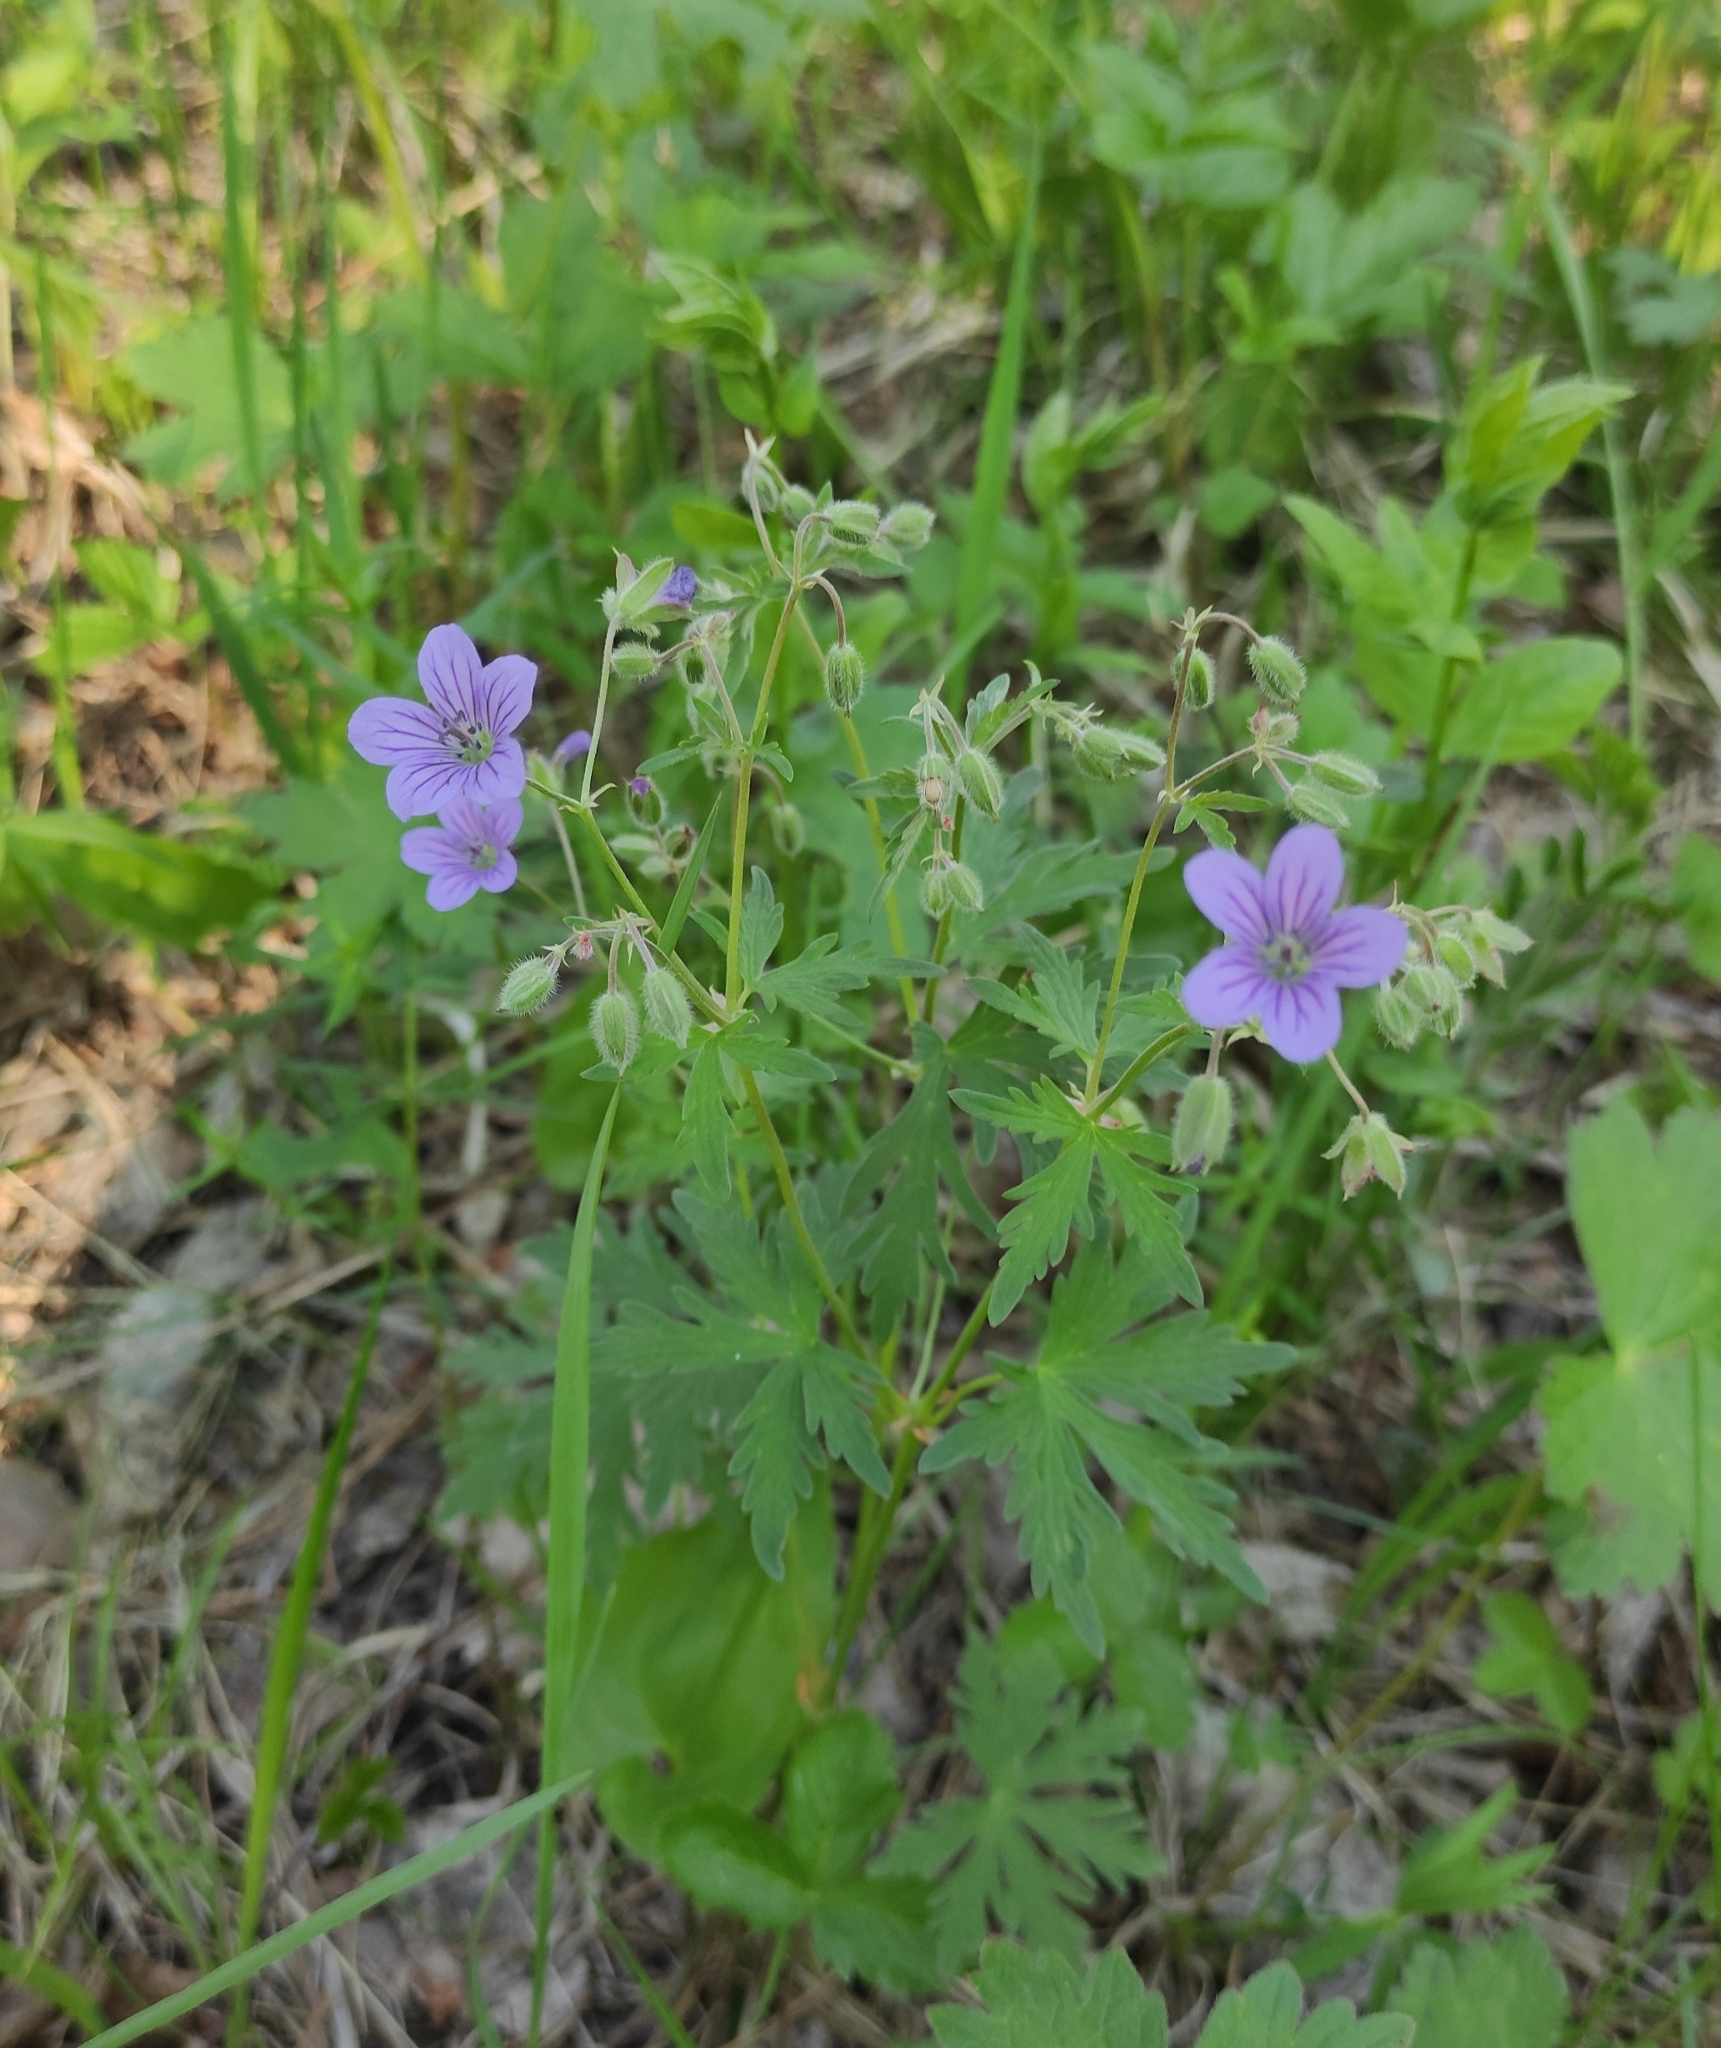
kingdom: Plantae
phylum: Tracheophyta
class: Magnoliopsida
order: Geraniales
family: Geraniaceae
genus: Geranium
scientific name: Geranium pseudosibiricum
